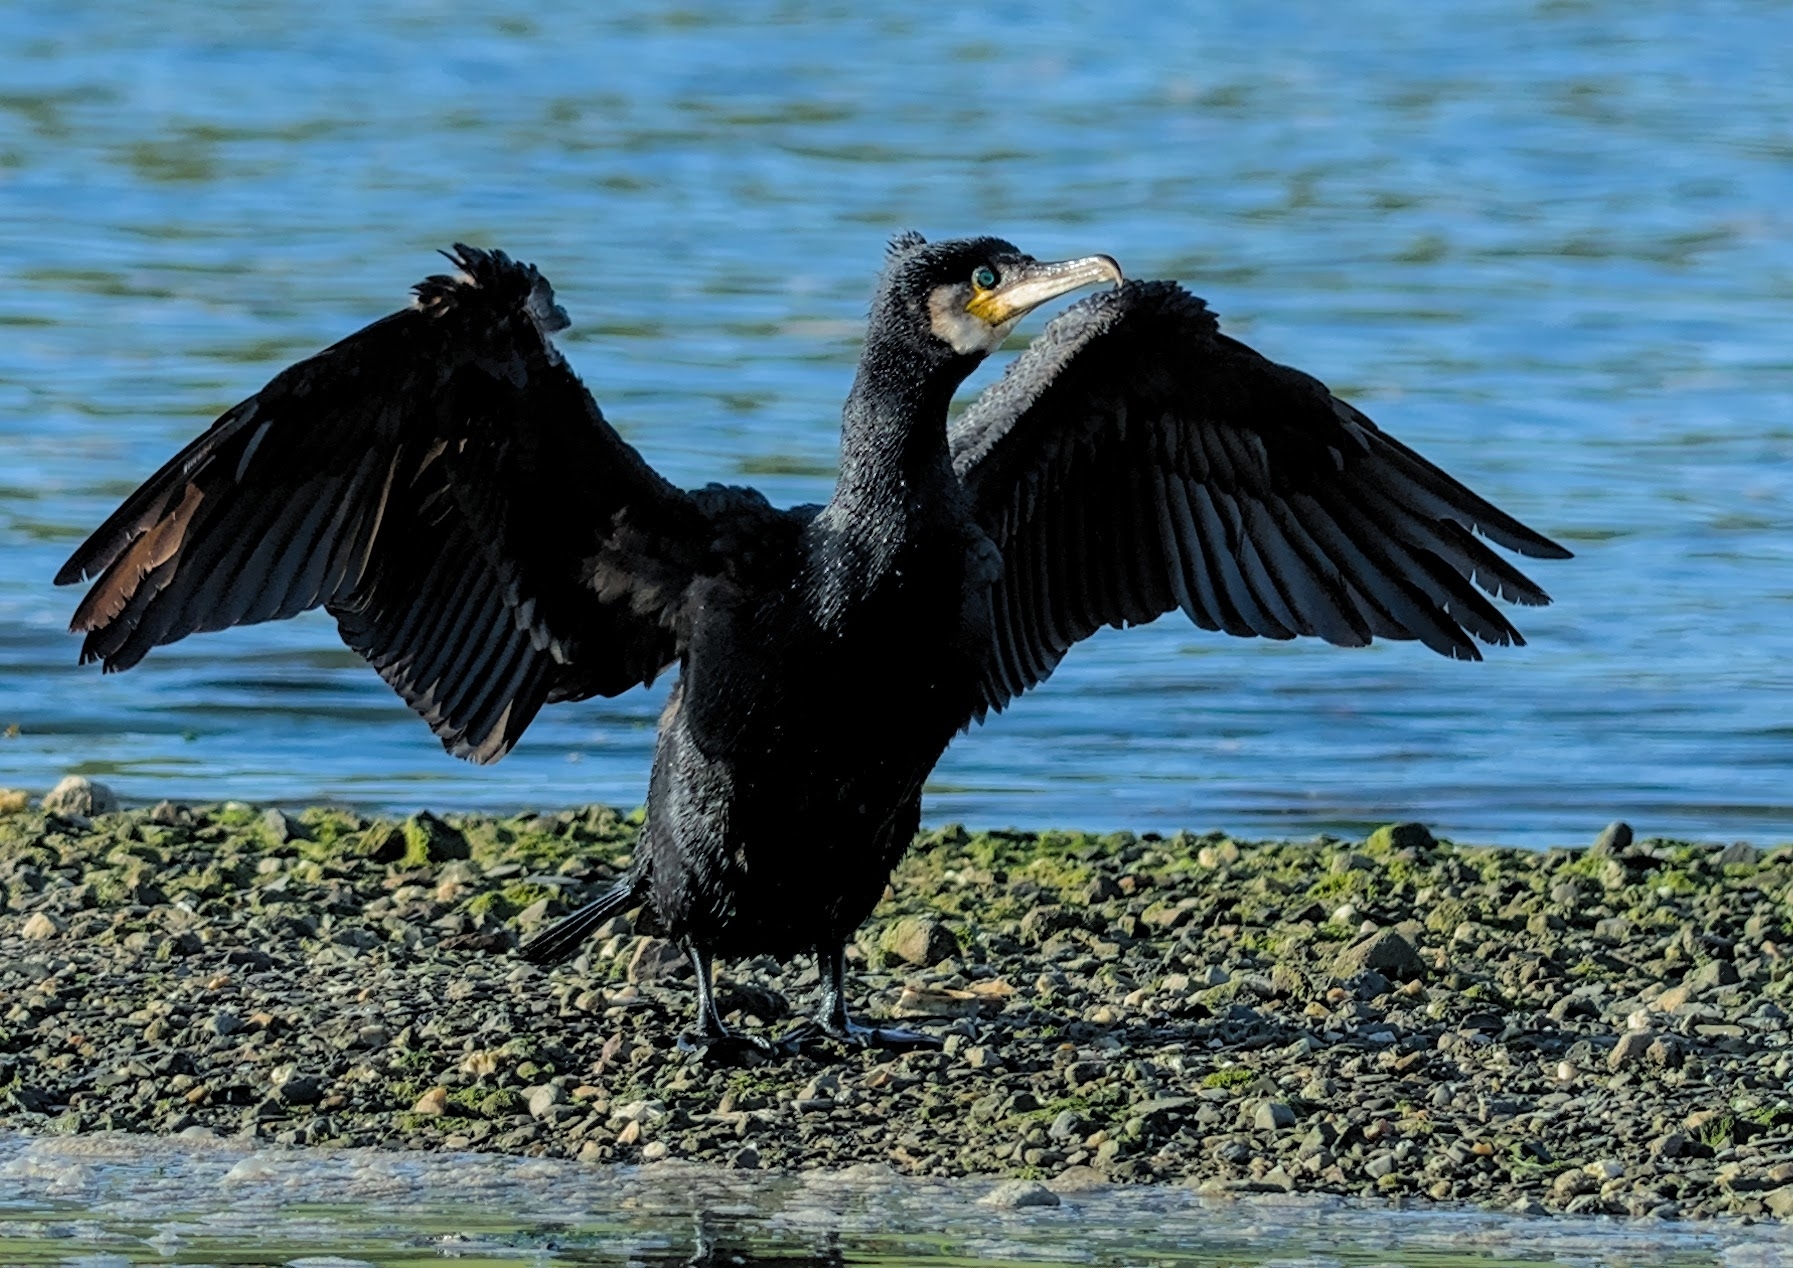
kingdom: Animalia
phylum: Chordata
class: Aves
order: Suliformes
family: Phalacrocoracidae
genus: Phalacrocorax
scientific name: Phalacrocorax carbo
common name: Great cormorant
